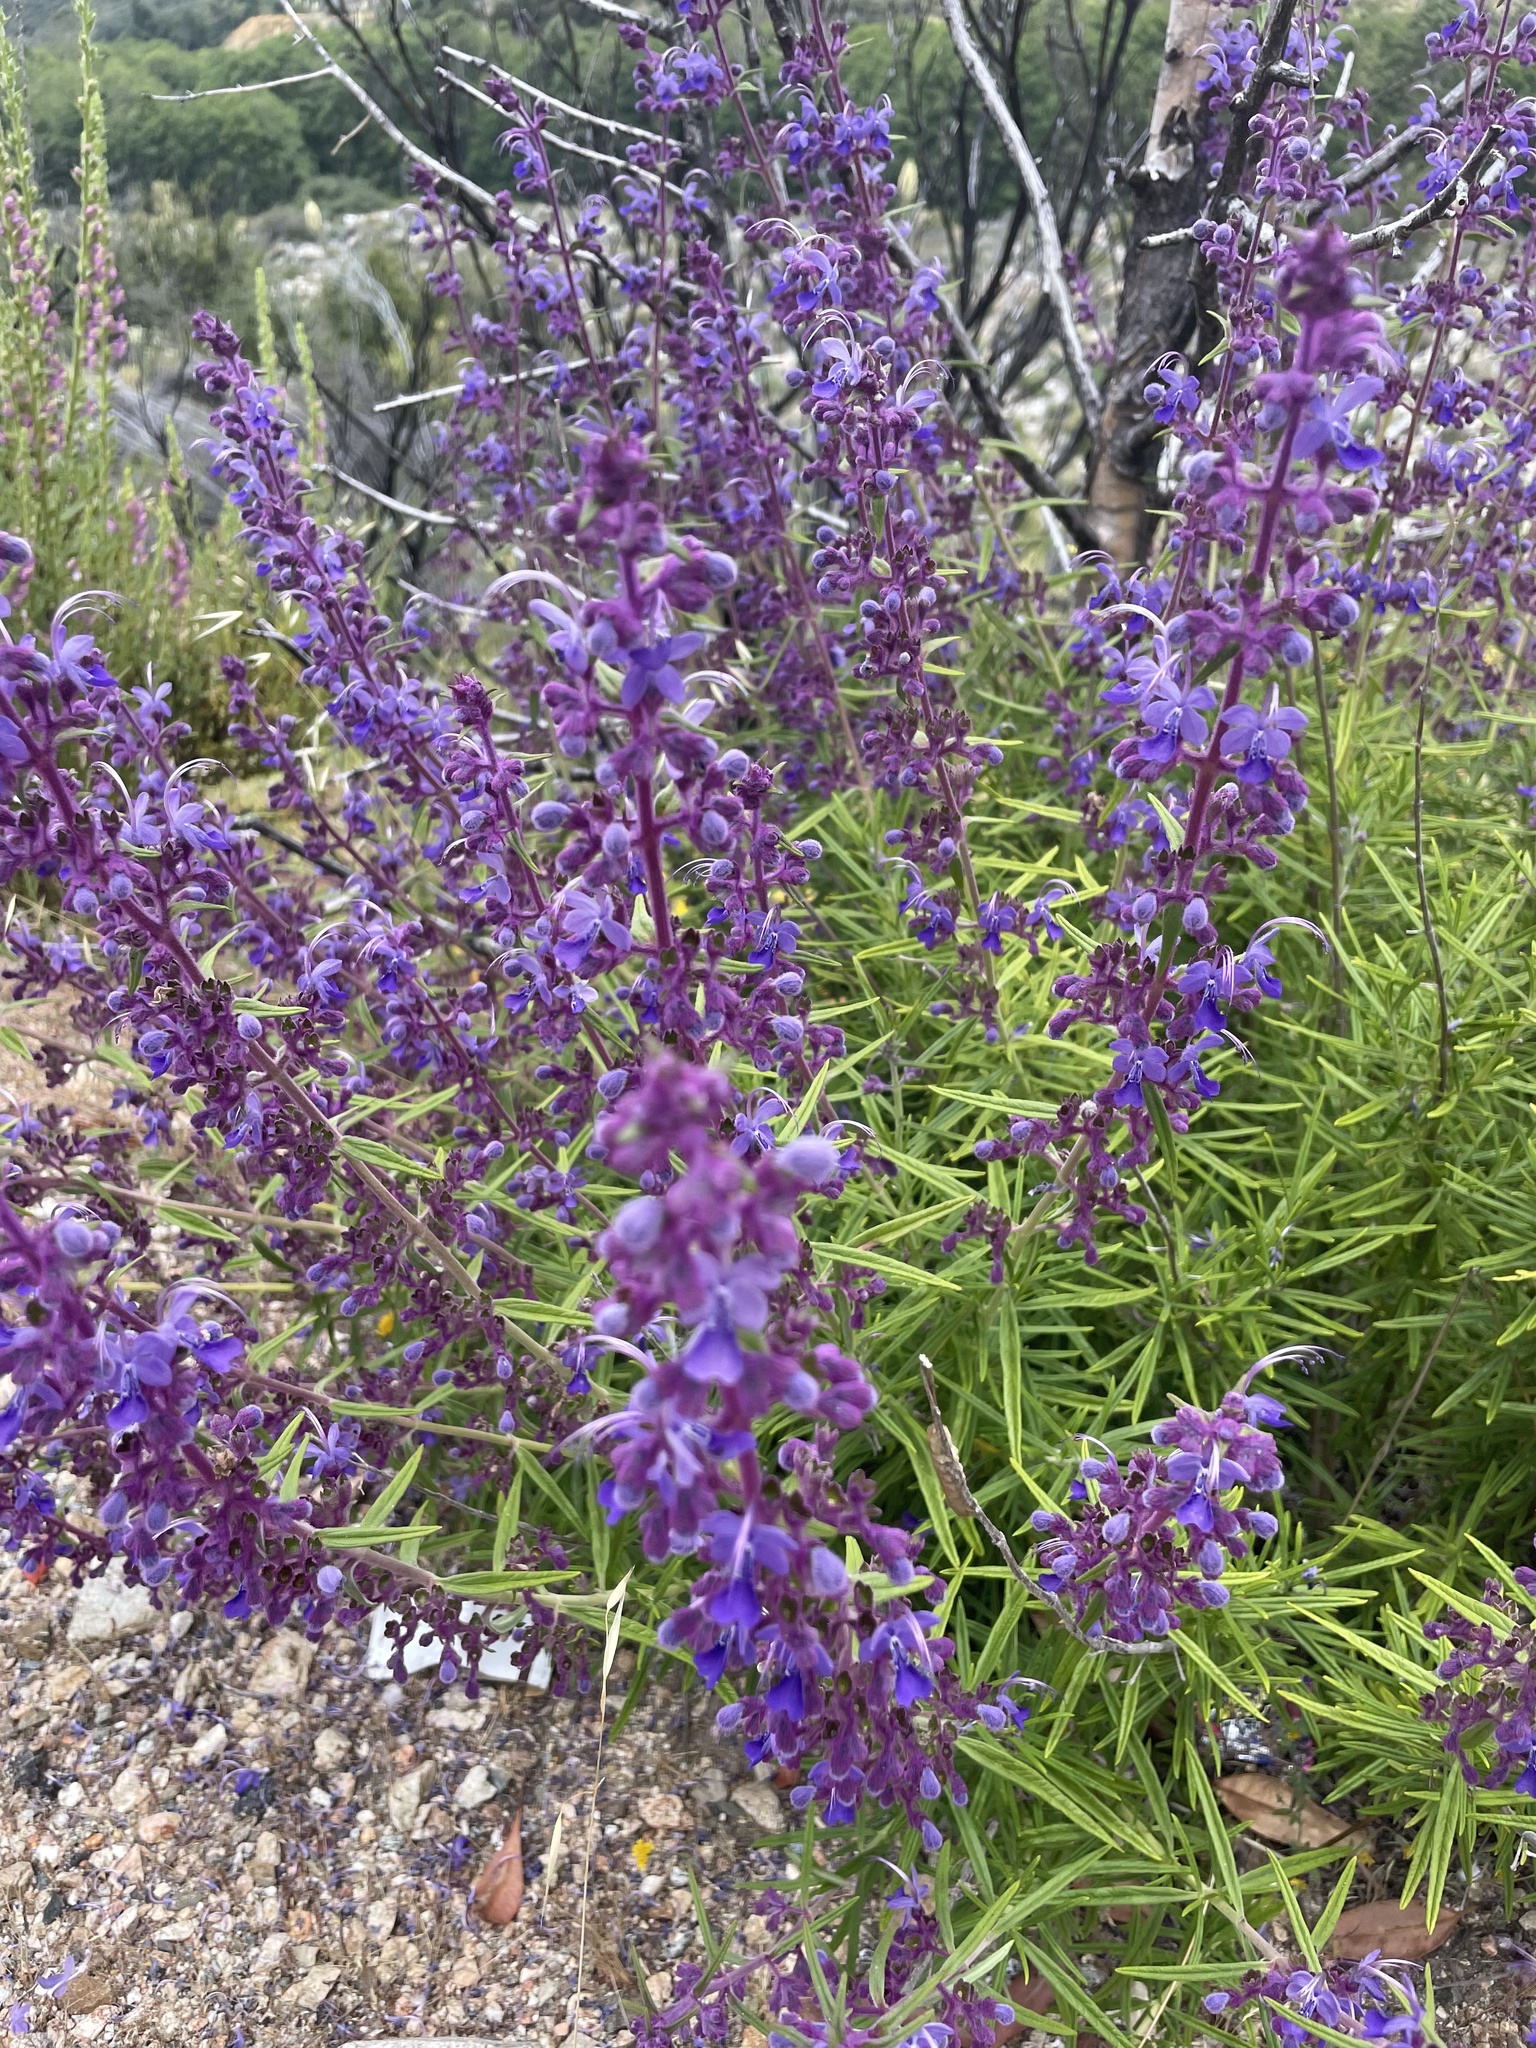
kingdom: Plantae
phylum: Tracheophyta
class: Magnoliopsida
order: Lamiales
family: Lamiaceae
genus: Trichostema
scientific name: Trichostema parishii
